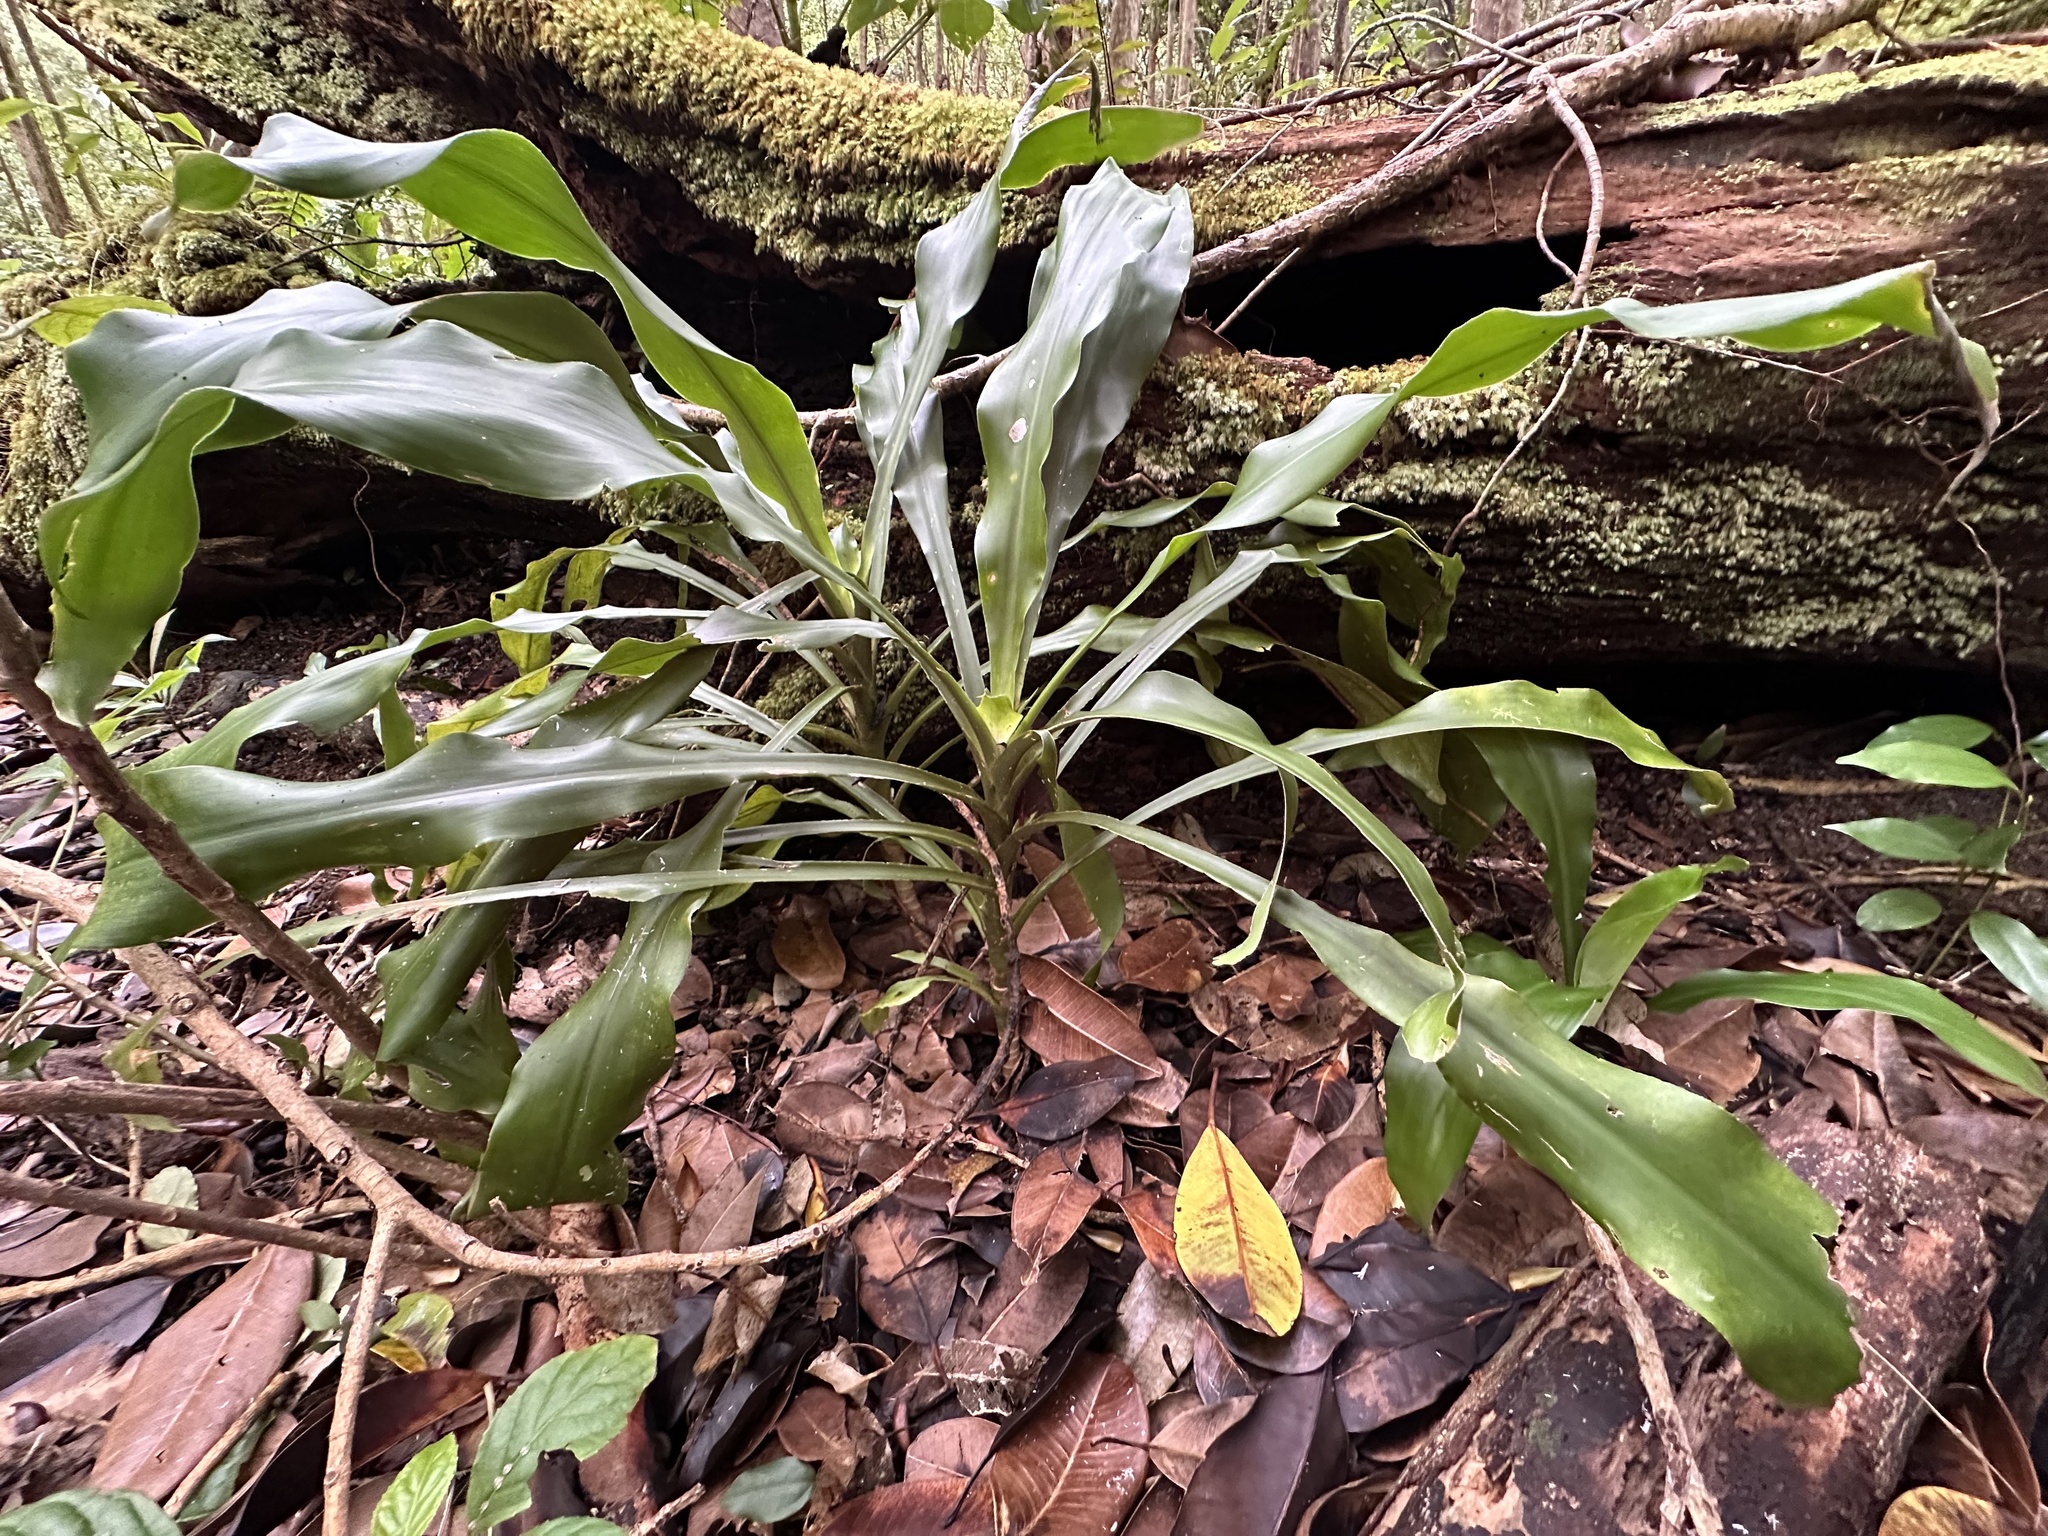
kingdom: Plantae
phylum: Tracheophyta
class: Liliopsida
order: Asparagales
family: Asparagaceae
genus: Dracaena
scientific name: Dracaena fragrans
